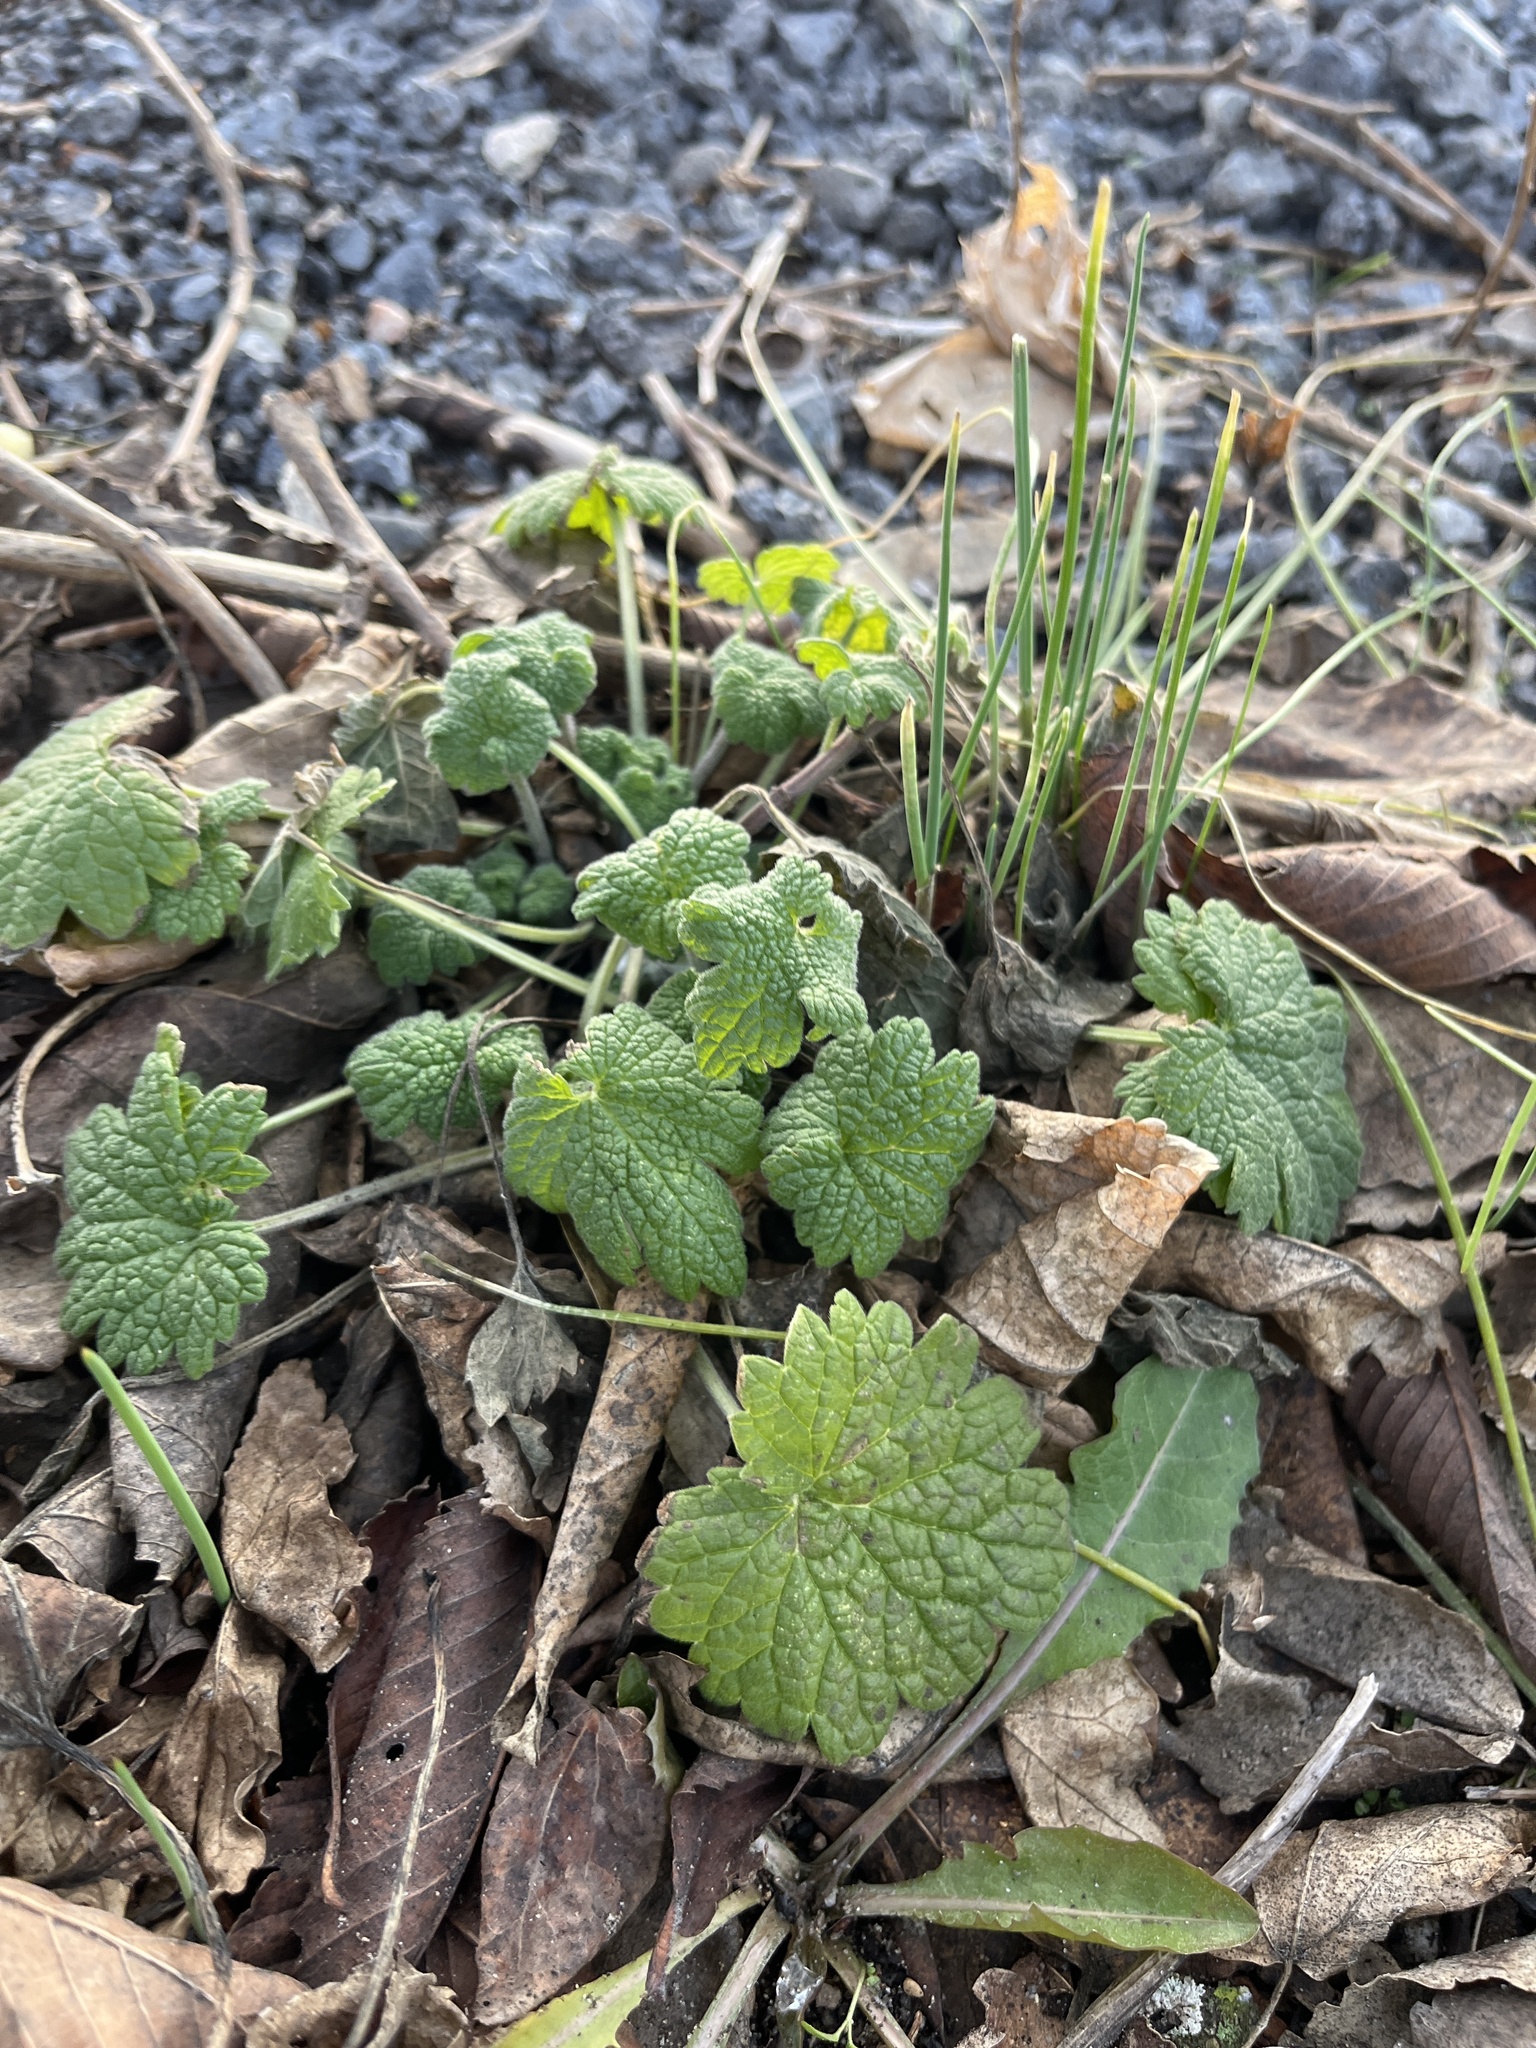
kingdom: Plantae
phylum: Tracheophyta
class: Magnoliopsida
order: Lamiales
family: Lamiaceae
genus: Leonurus
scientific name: Leonurus cardiaca
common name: Motherwort
